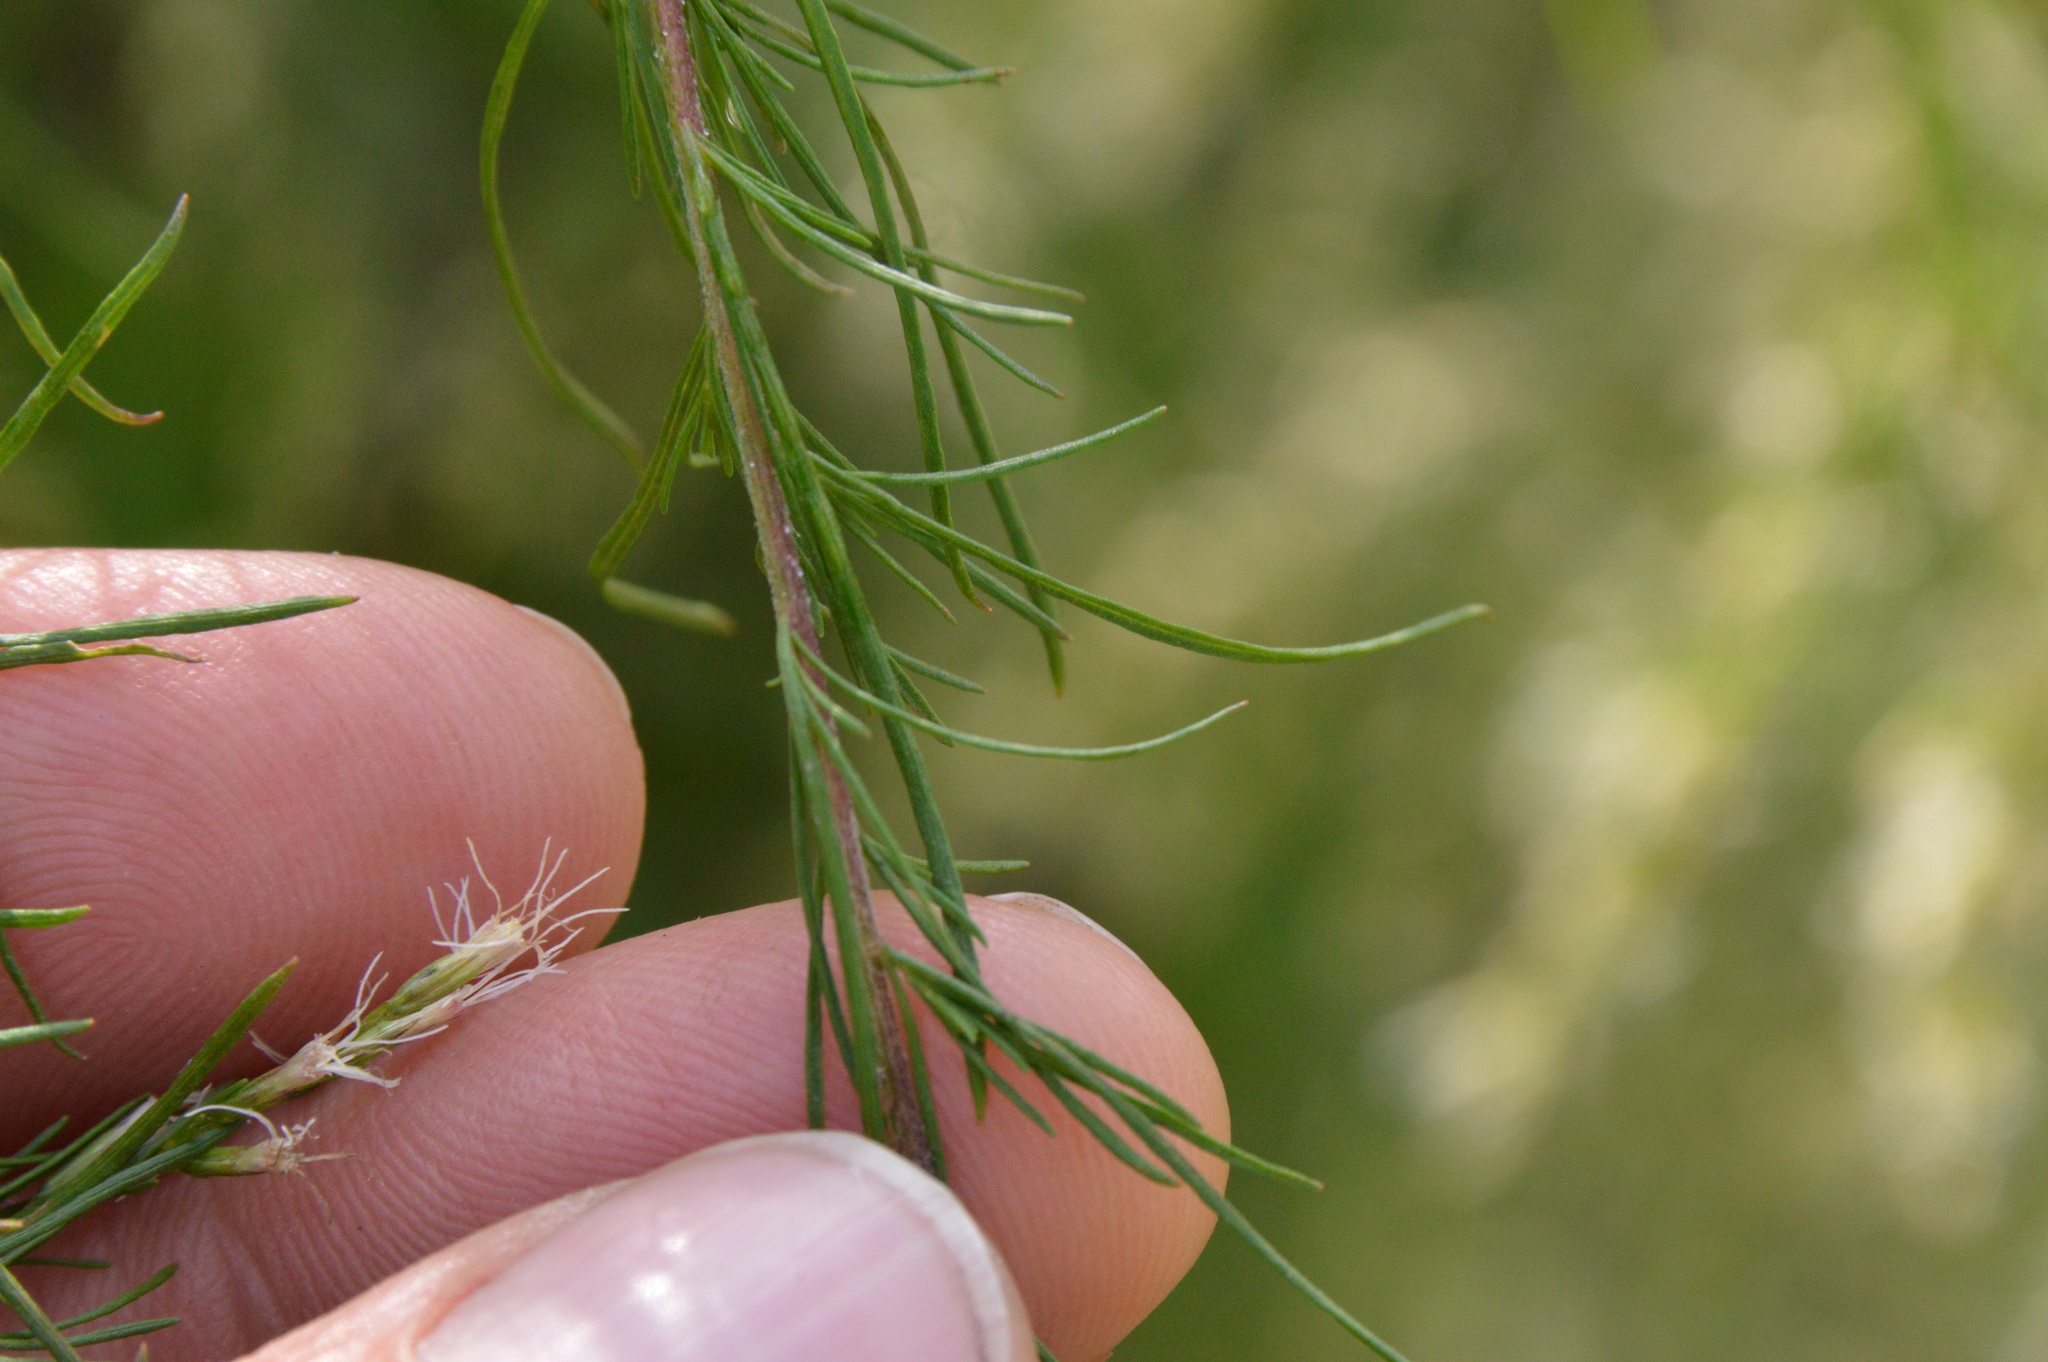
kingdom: Plantae
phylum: Tracheophyta
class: Magnoliopsida
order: Asterales
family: Asteraceae
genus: Eupatorium
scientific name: Eupatorium capillifolium
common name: Dog-fennel
